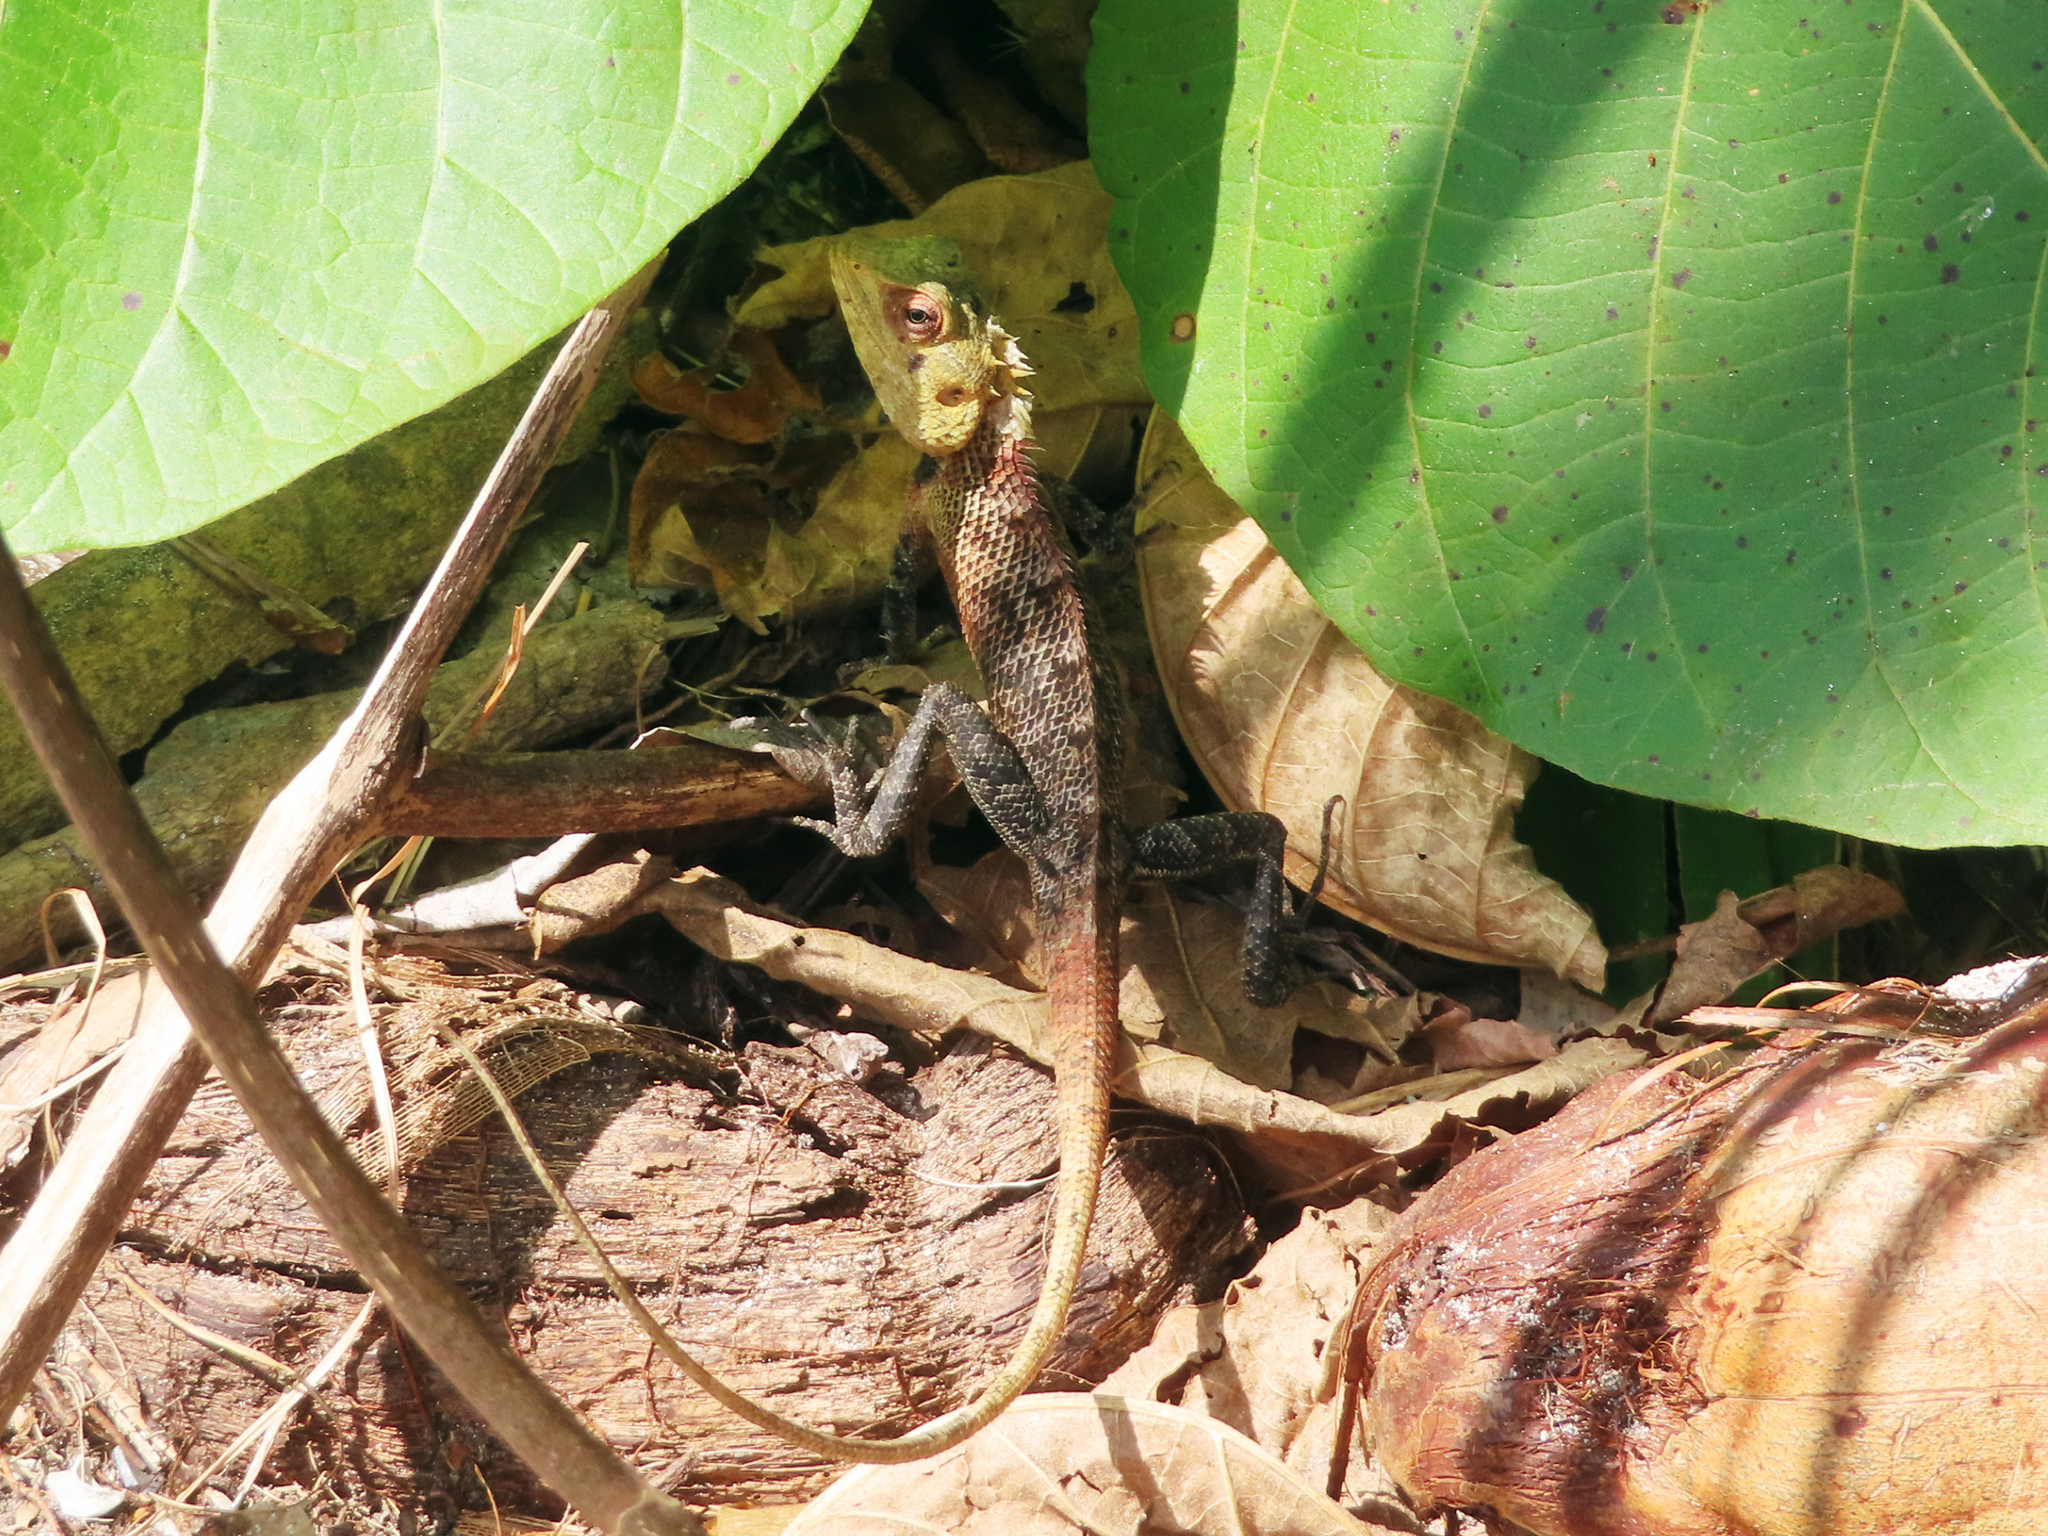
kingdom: Animalia
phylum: Chordata
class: Squamata
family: Agamidae
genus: Calotes
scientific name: Calotes versicolor
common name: Oriental garden lizard
